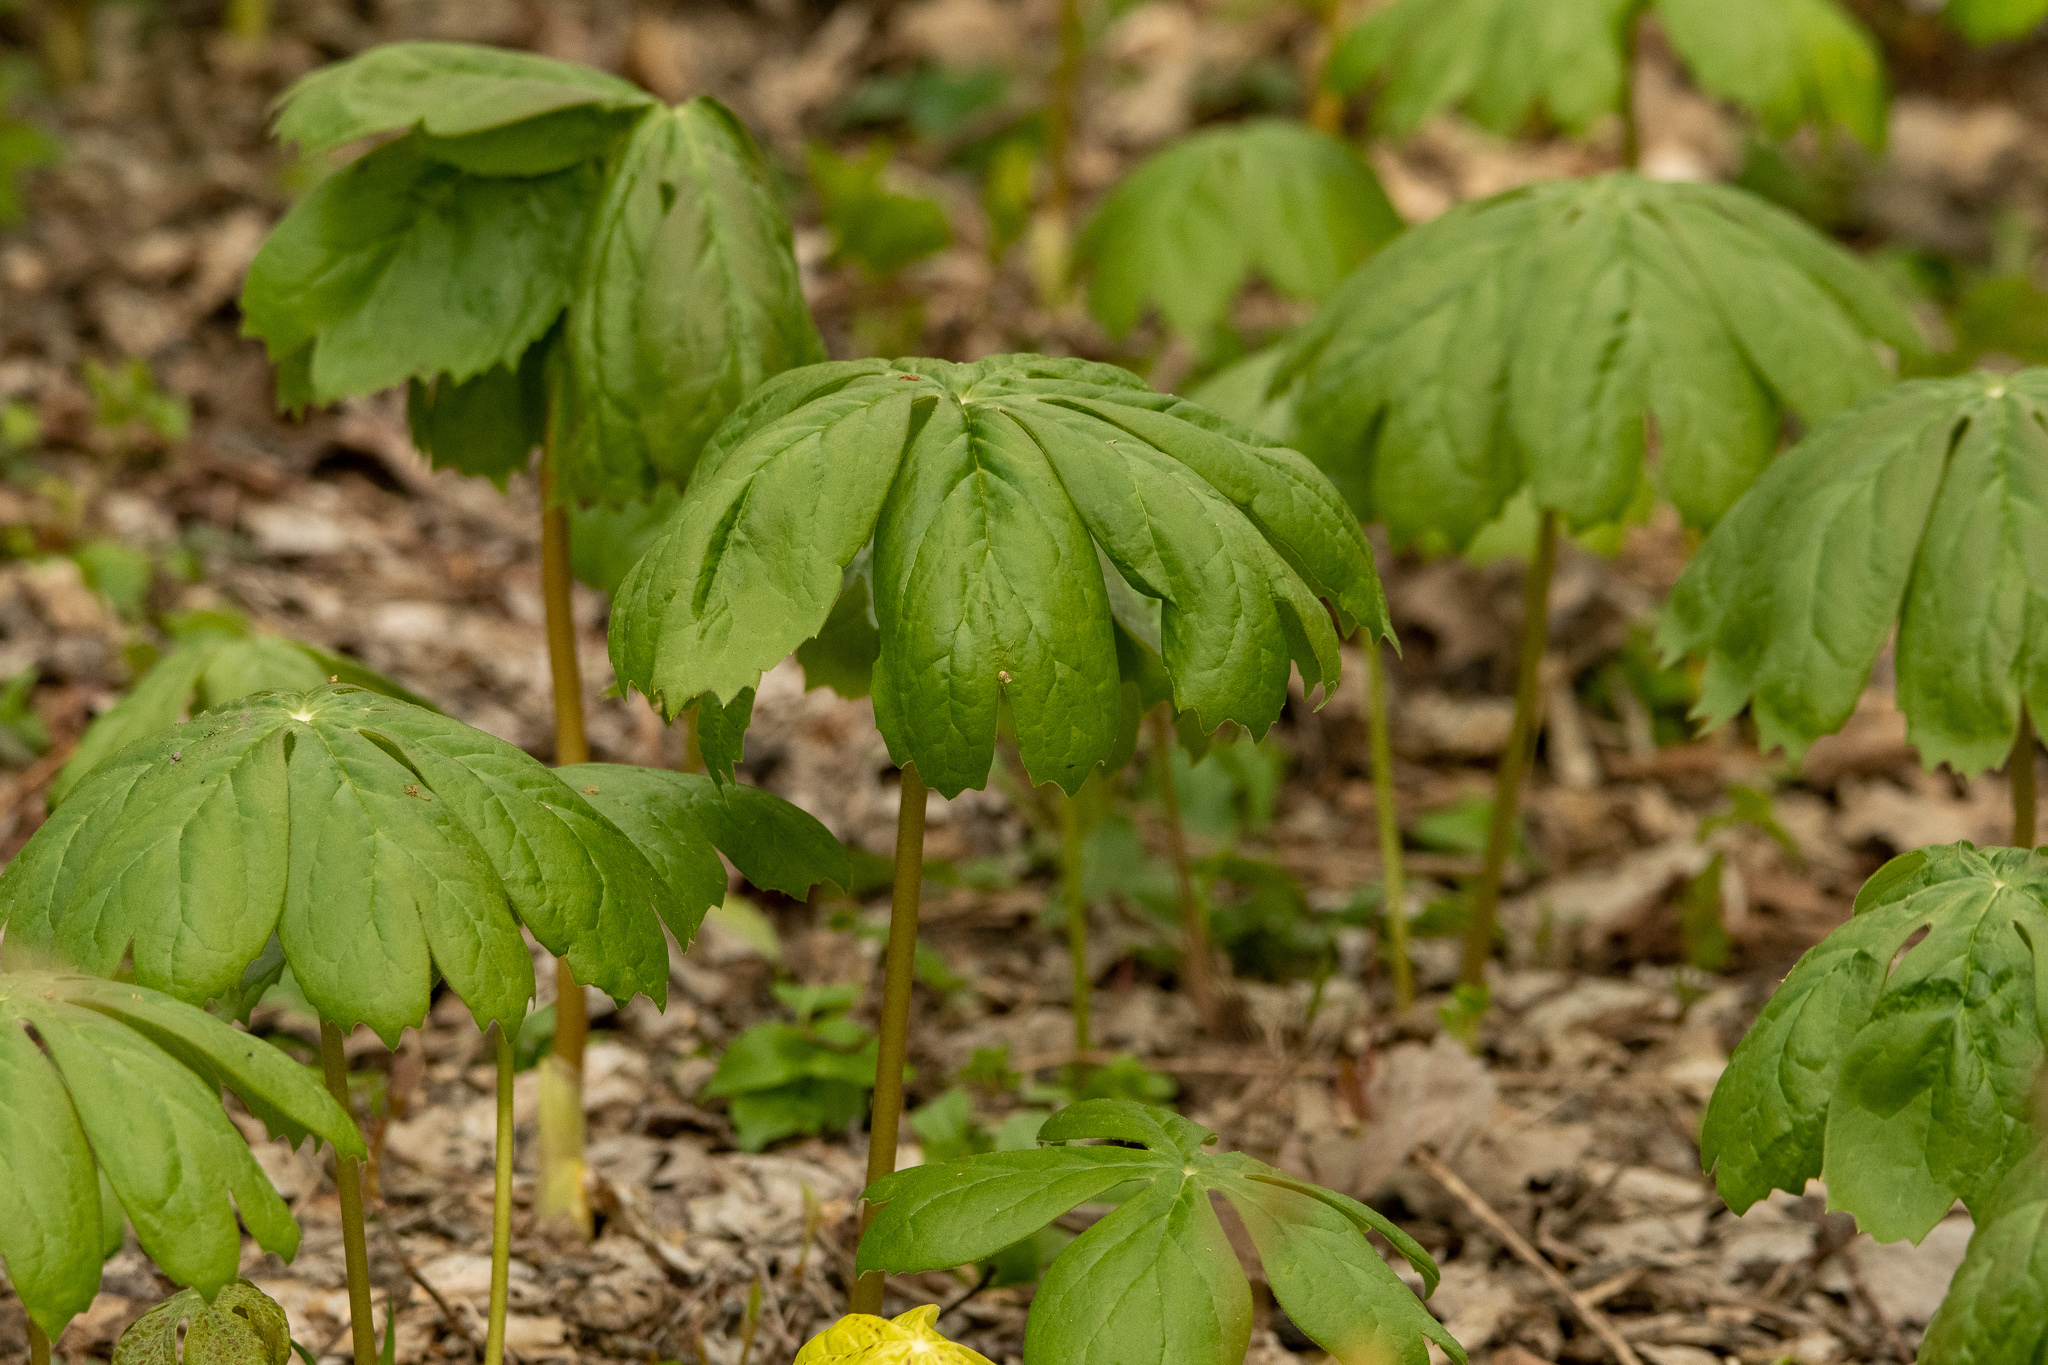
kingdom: Plantae
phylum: Tracheophyta
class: Magnoliopsida
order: Ranunculales
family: Berberidaceae
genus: Podophyllum
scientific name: Podophyllum peltatum
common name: Wild mandrake
